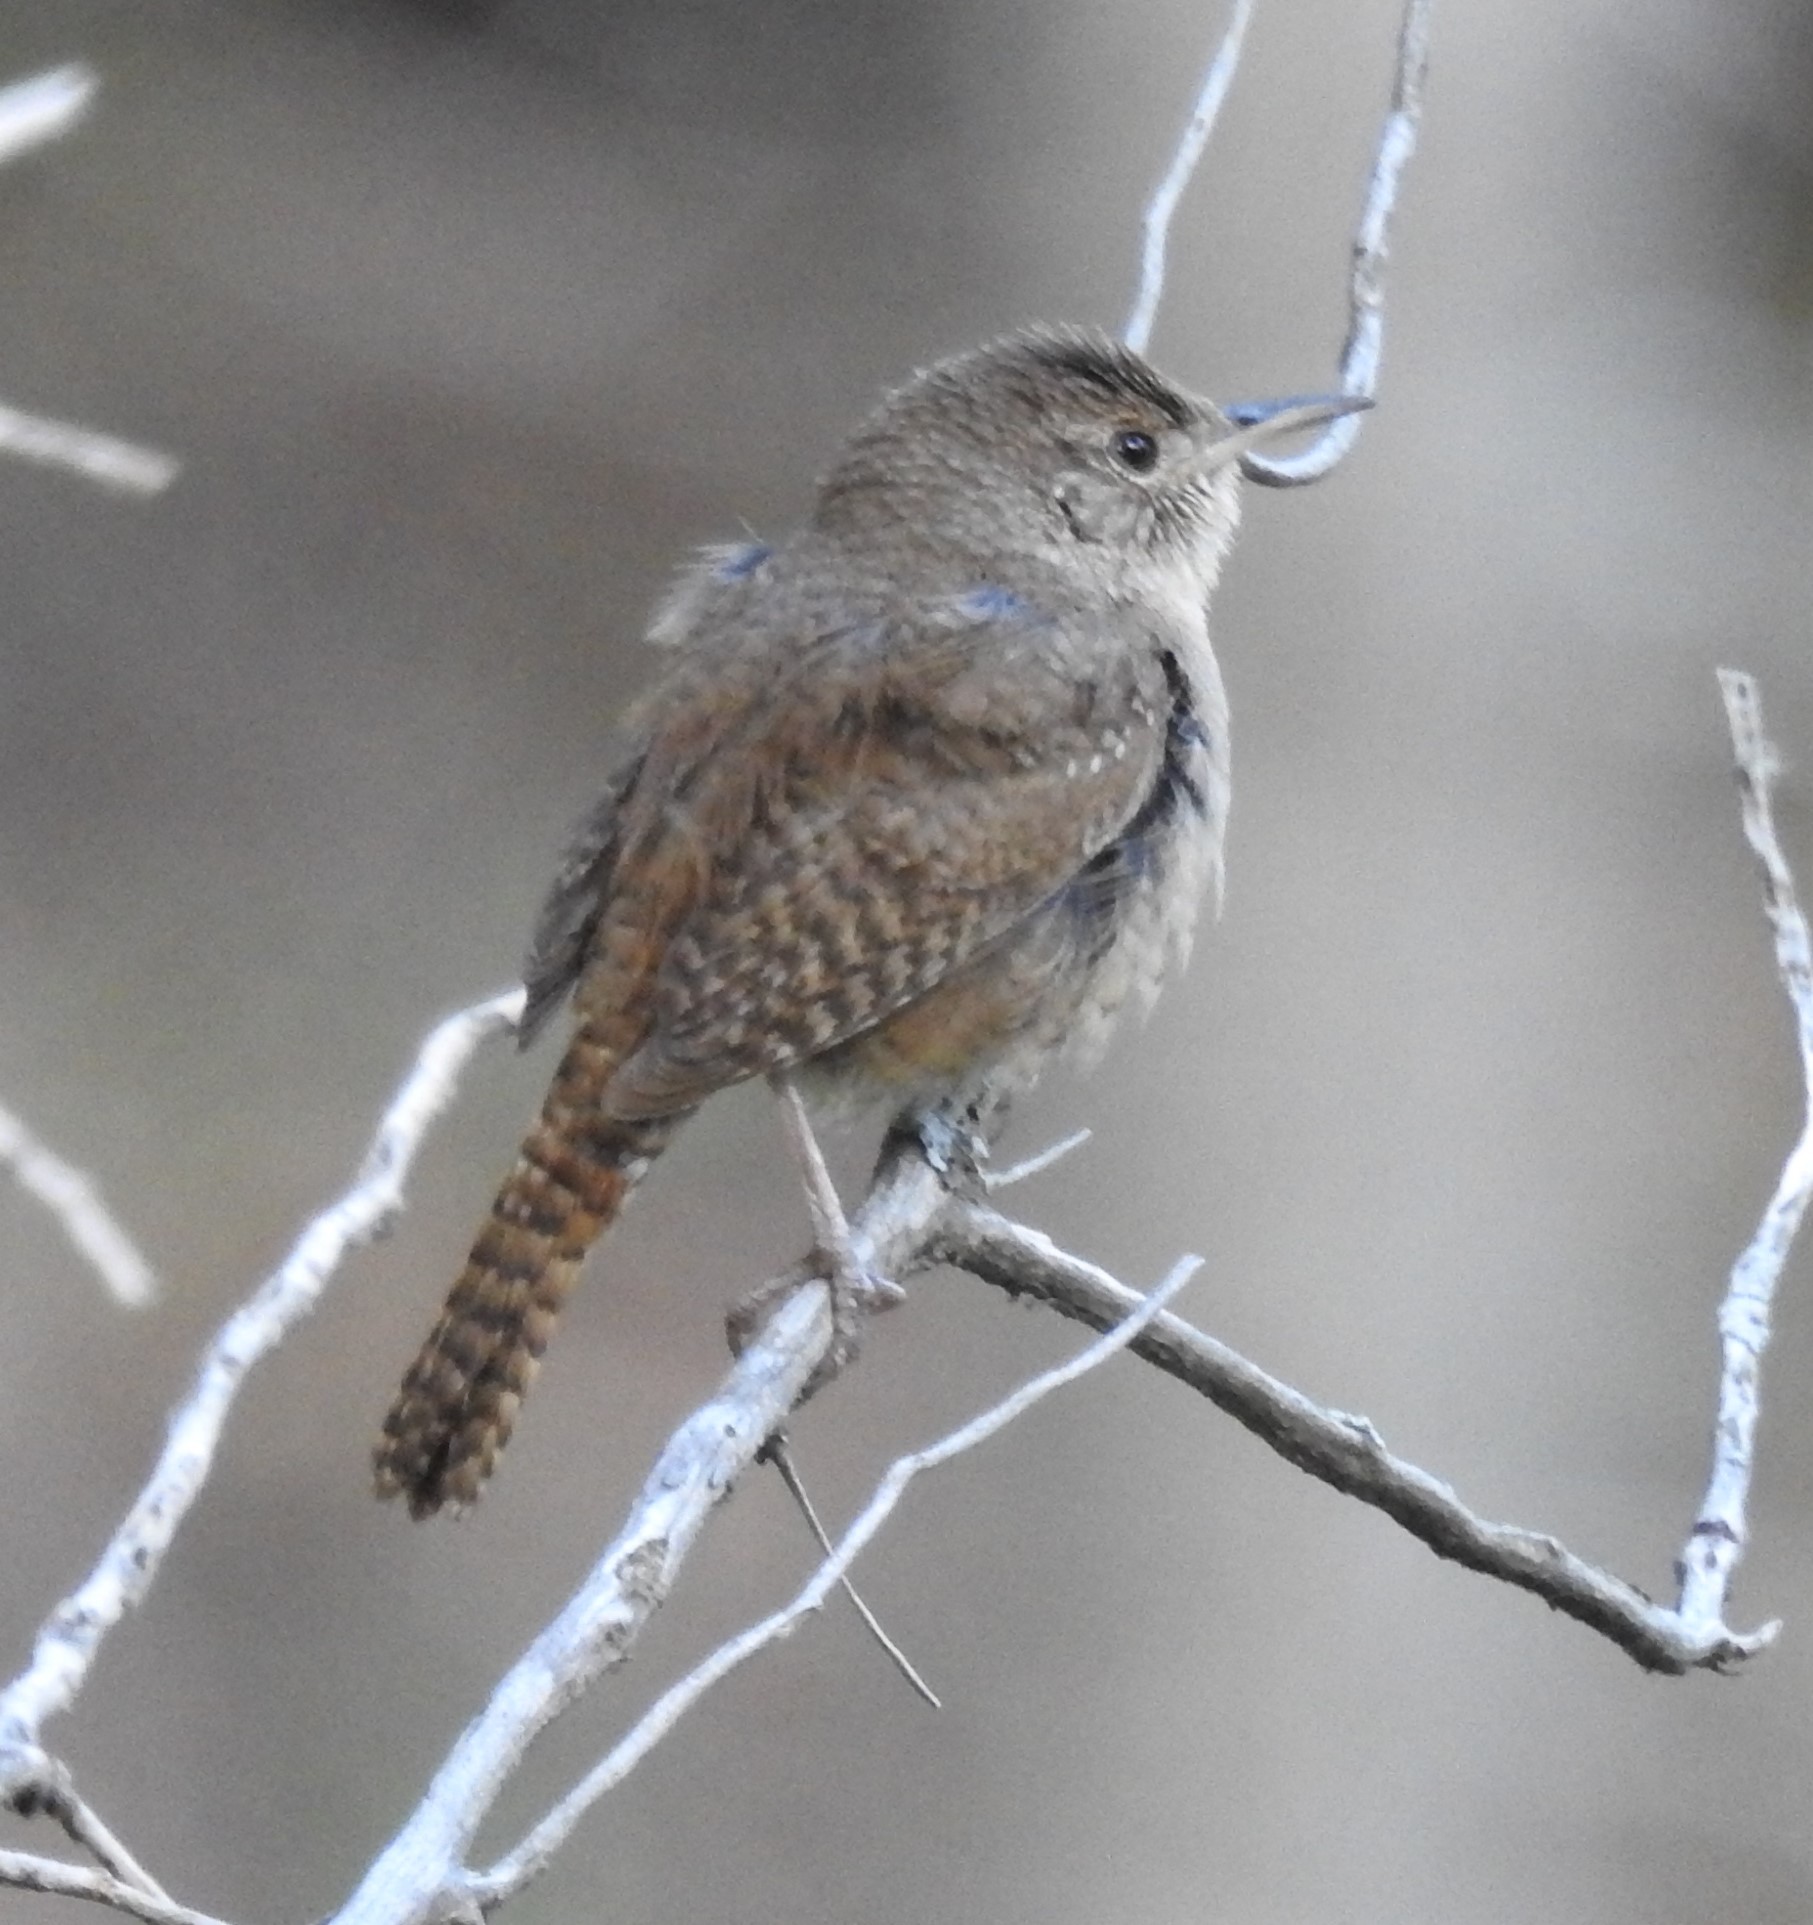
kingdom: Animalia
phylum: Chordata
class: Aves
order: Passeriformes
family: Troglodytidae
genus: Troglodytes
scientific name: Troglodytes aedon
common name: House wren
